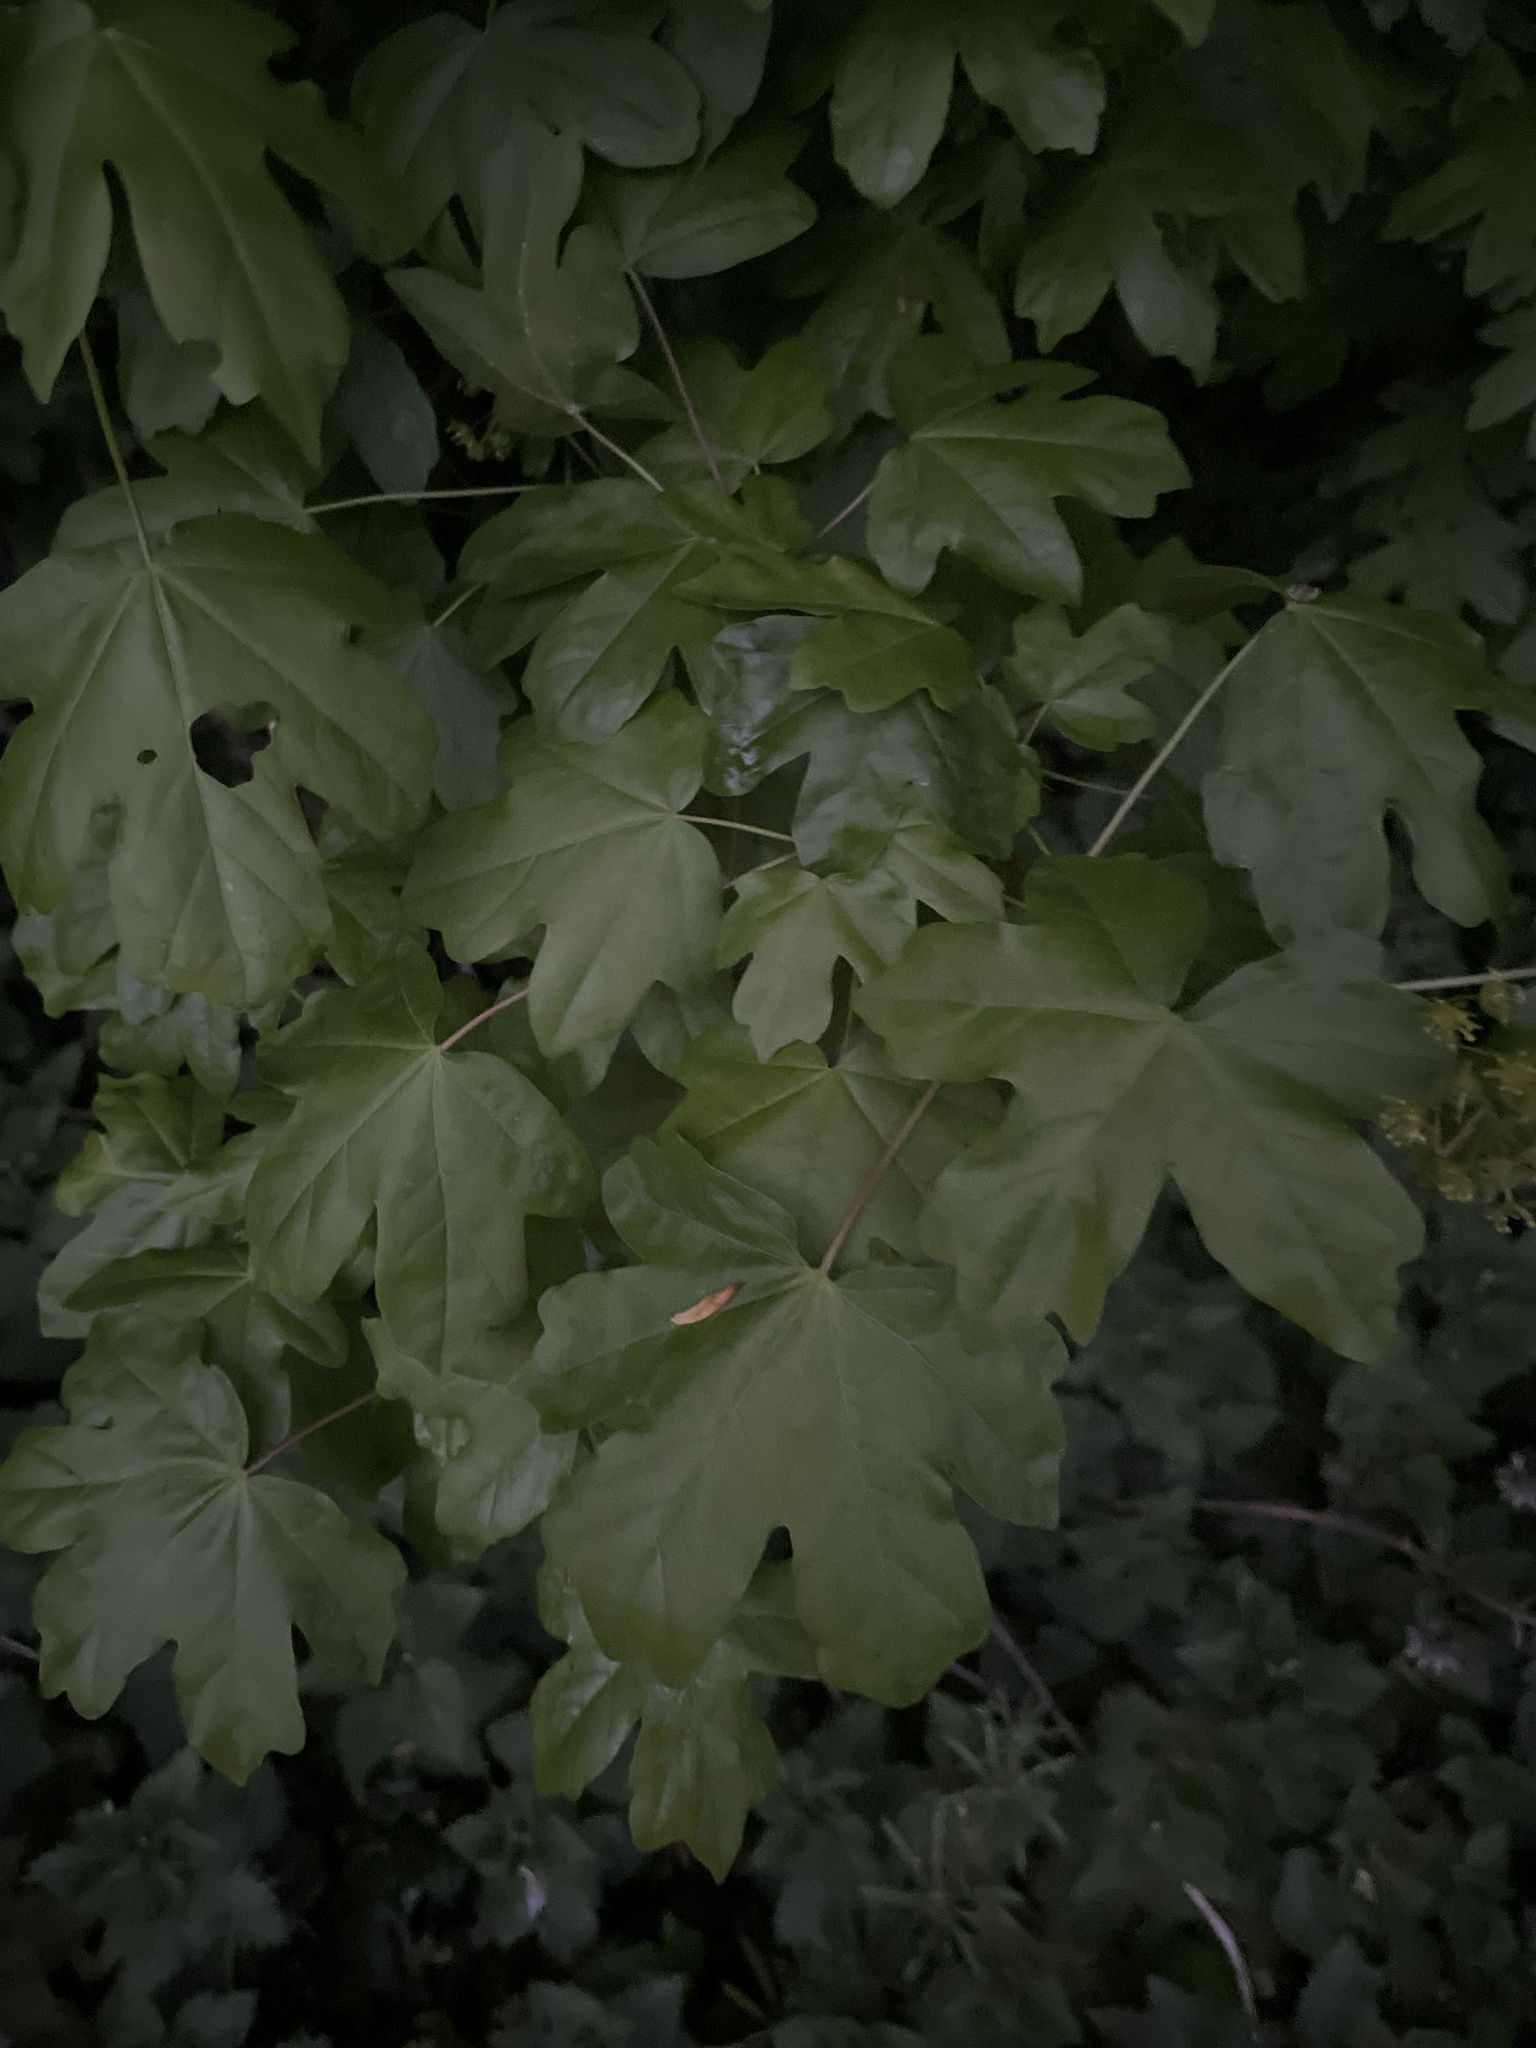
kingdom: Plantae
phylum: Tracheophyta
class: Magnoliopsida
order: Sapindales
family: Sapindaceae
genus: Acer
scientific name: Acer campestre
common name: Field maple
